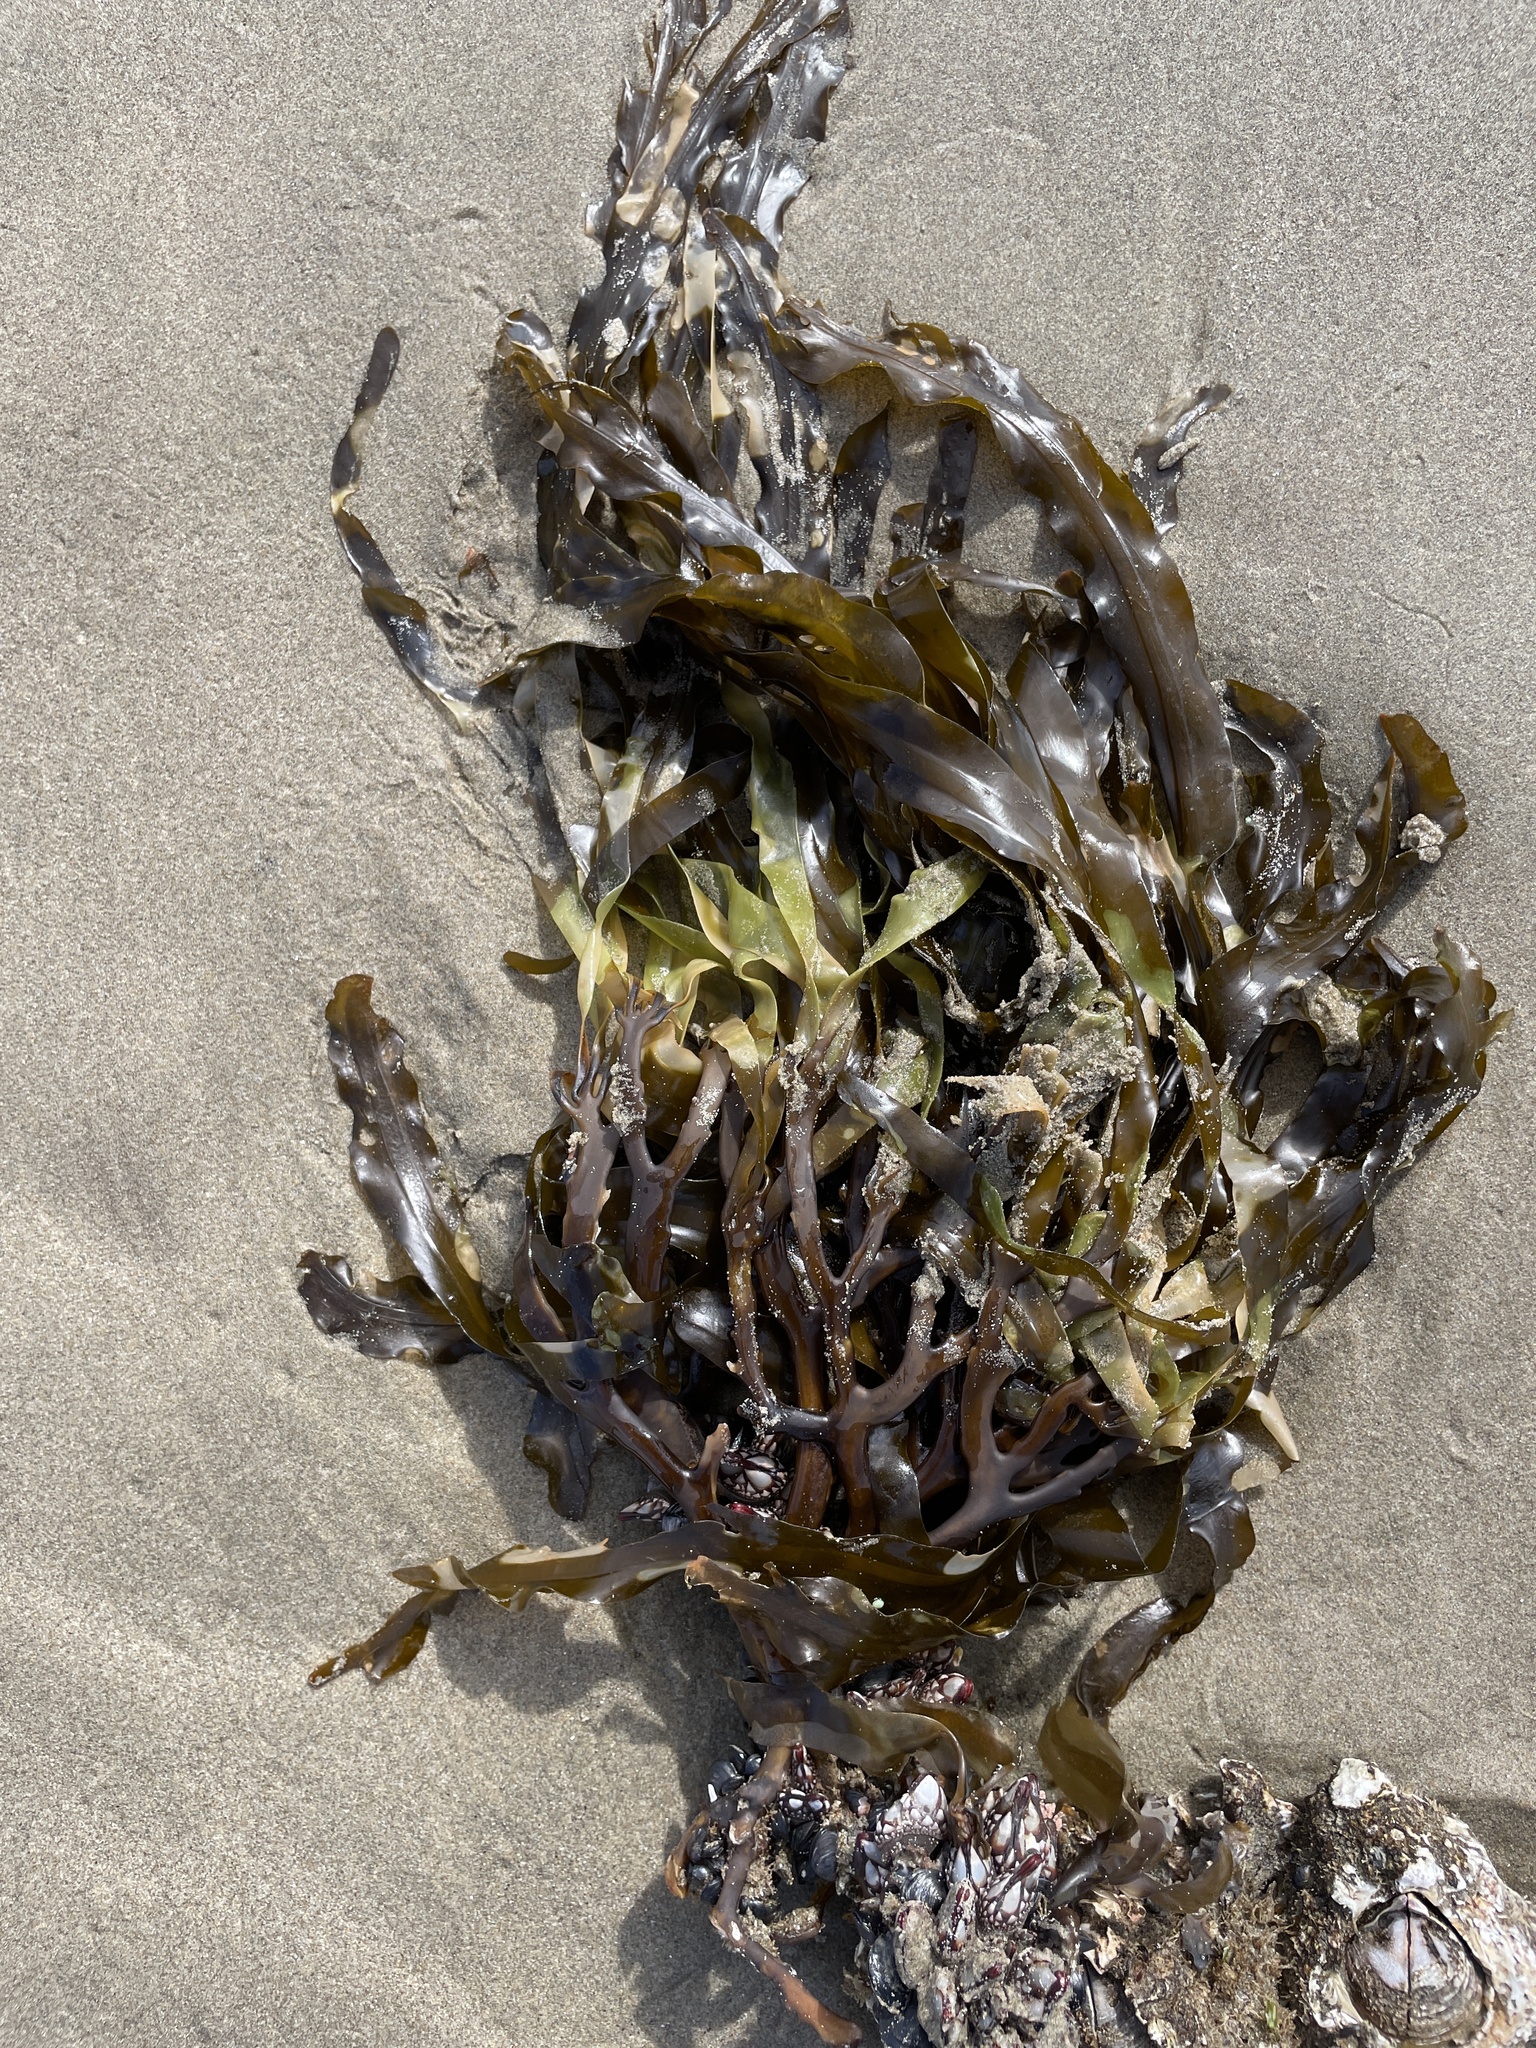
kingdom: Chromista
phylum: Ochrophyta
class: Phaeophyceae
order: Laminariales
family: Alariaceae
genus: Lessoniopsis
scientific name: Lessoniopsis littoralis
